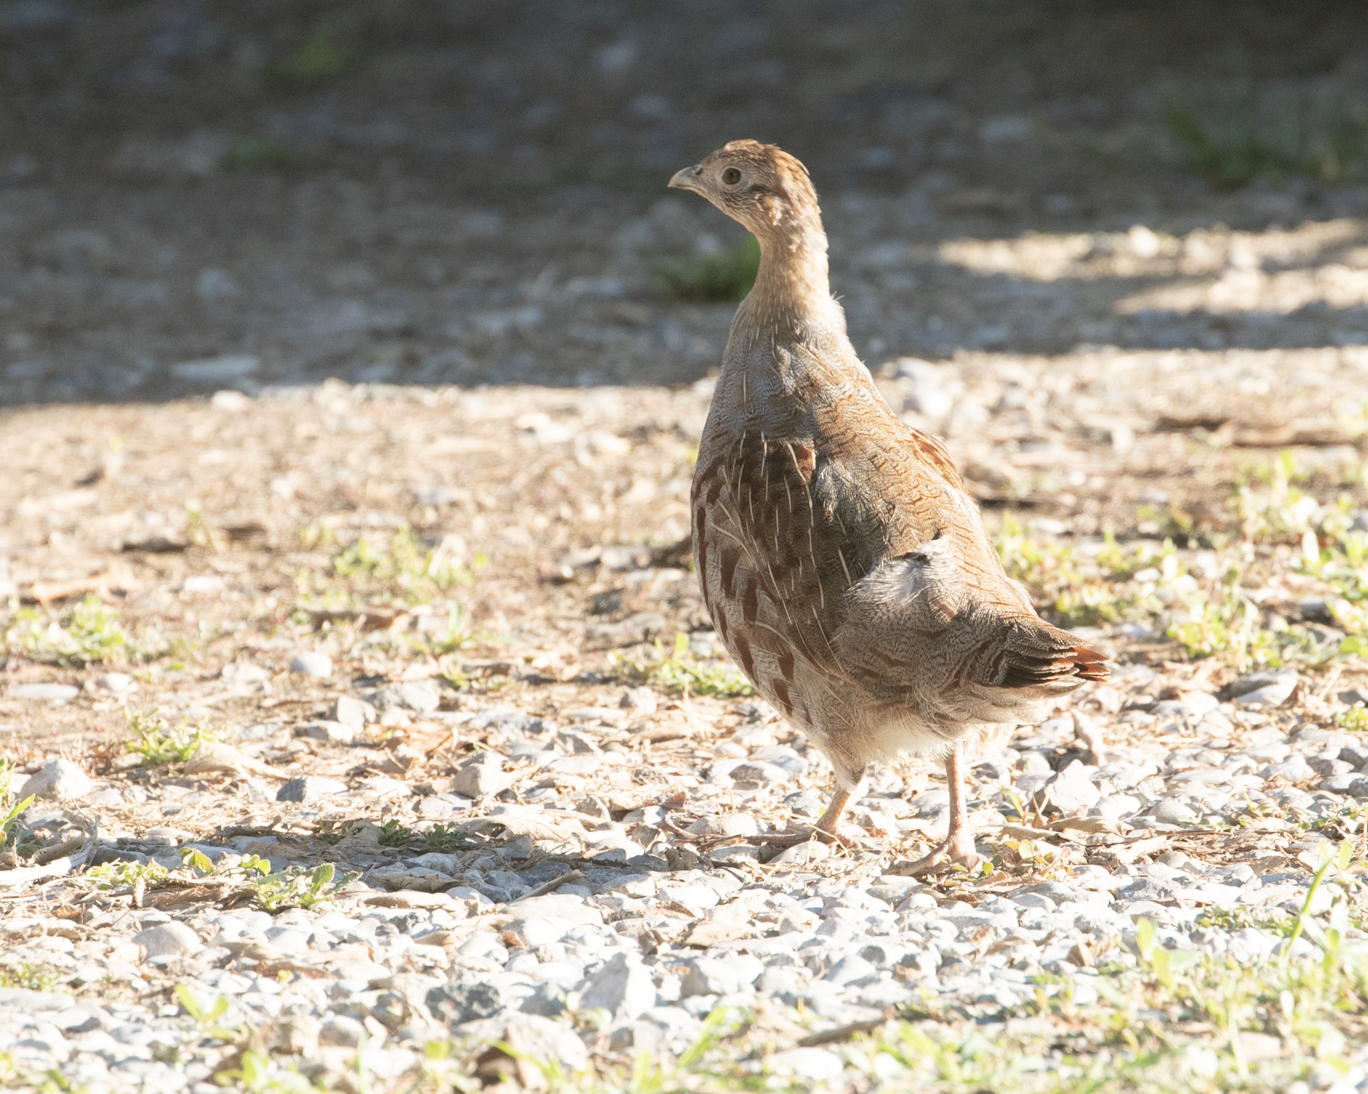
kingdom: Animalia
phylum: Chordata
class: Aves
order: Galliformes
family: Phasianidae
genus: Perdix
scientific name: Perdix perdix
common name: Grey partridge
